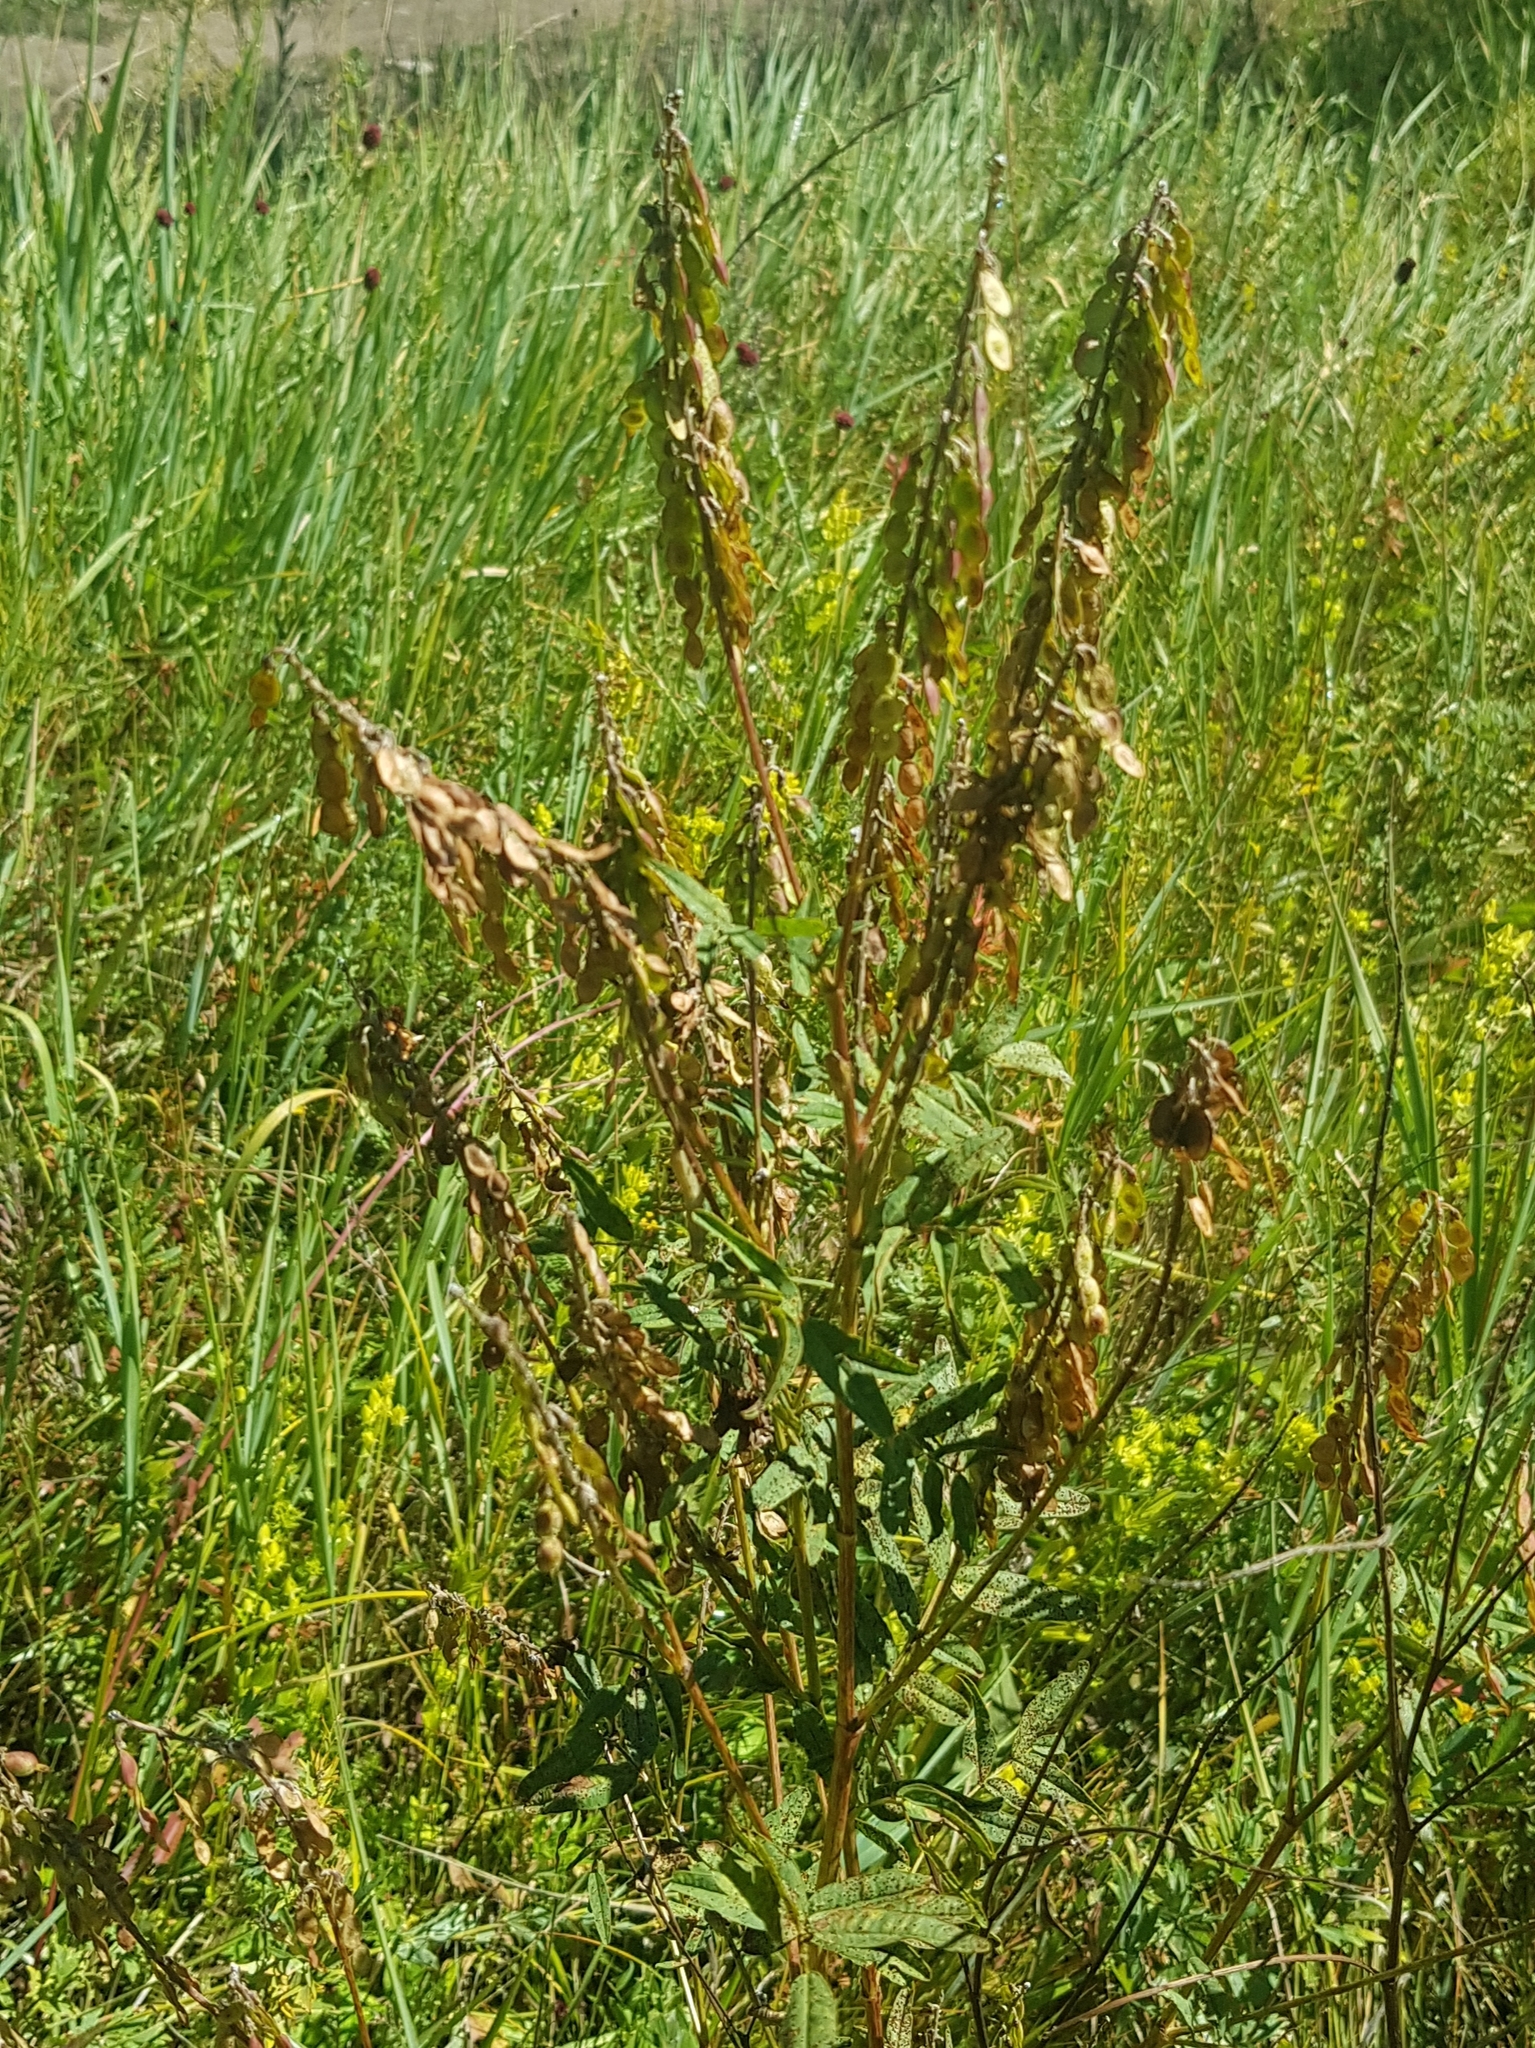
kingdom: Plantae
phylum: Tracheophyta
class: Magnoliopsida
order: Fabales
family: Fabaceae
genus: Hedysarum
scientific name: Hedysarum alpinum
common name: Alpine sweet-vetch
